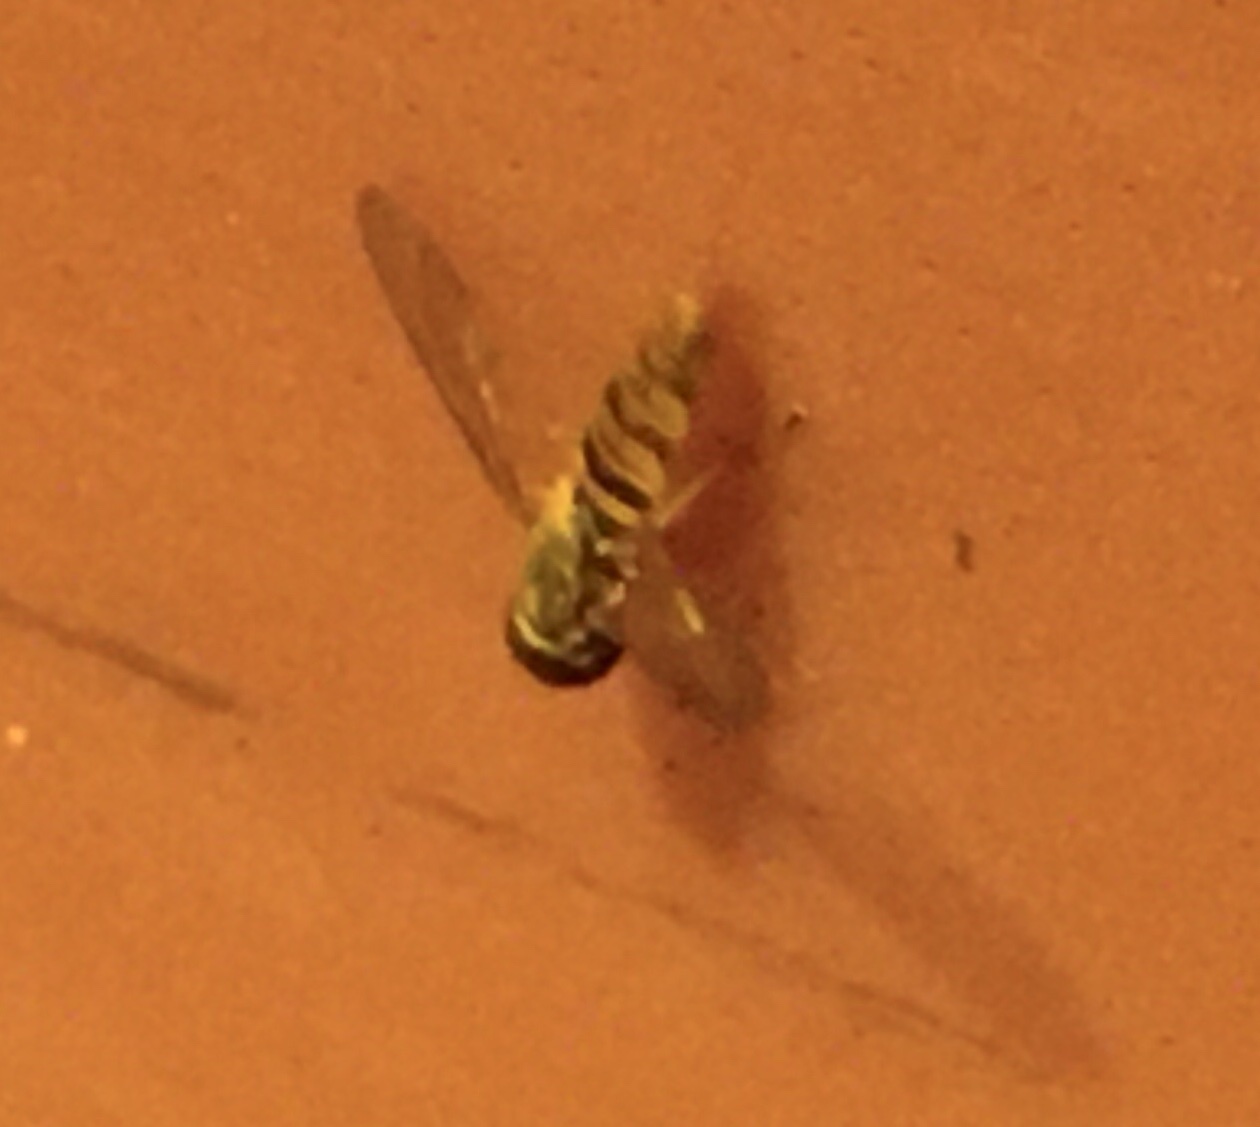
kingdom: Animalia
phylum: Arthropoda
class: Insecta
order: Diptera
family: Syrphidae
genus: Toxomerus
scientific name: Toxomerus politus
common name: Maize calligrapher
